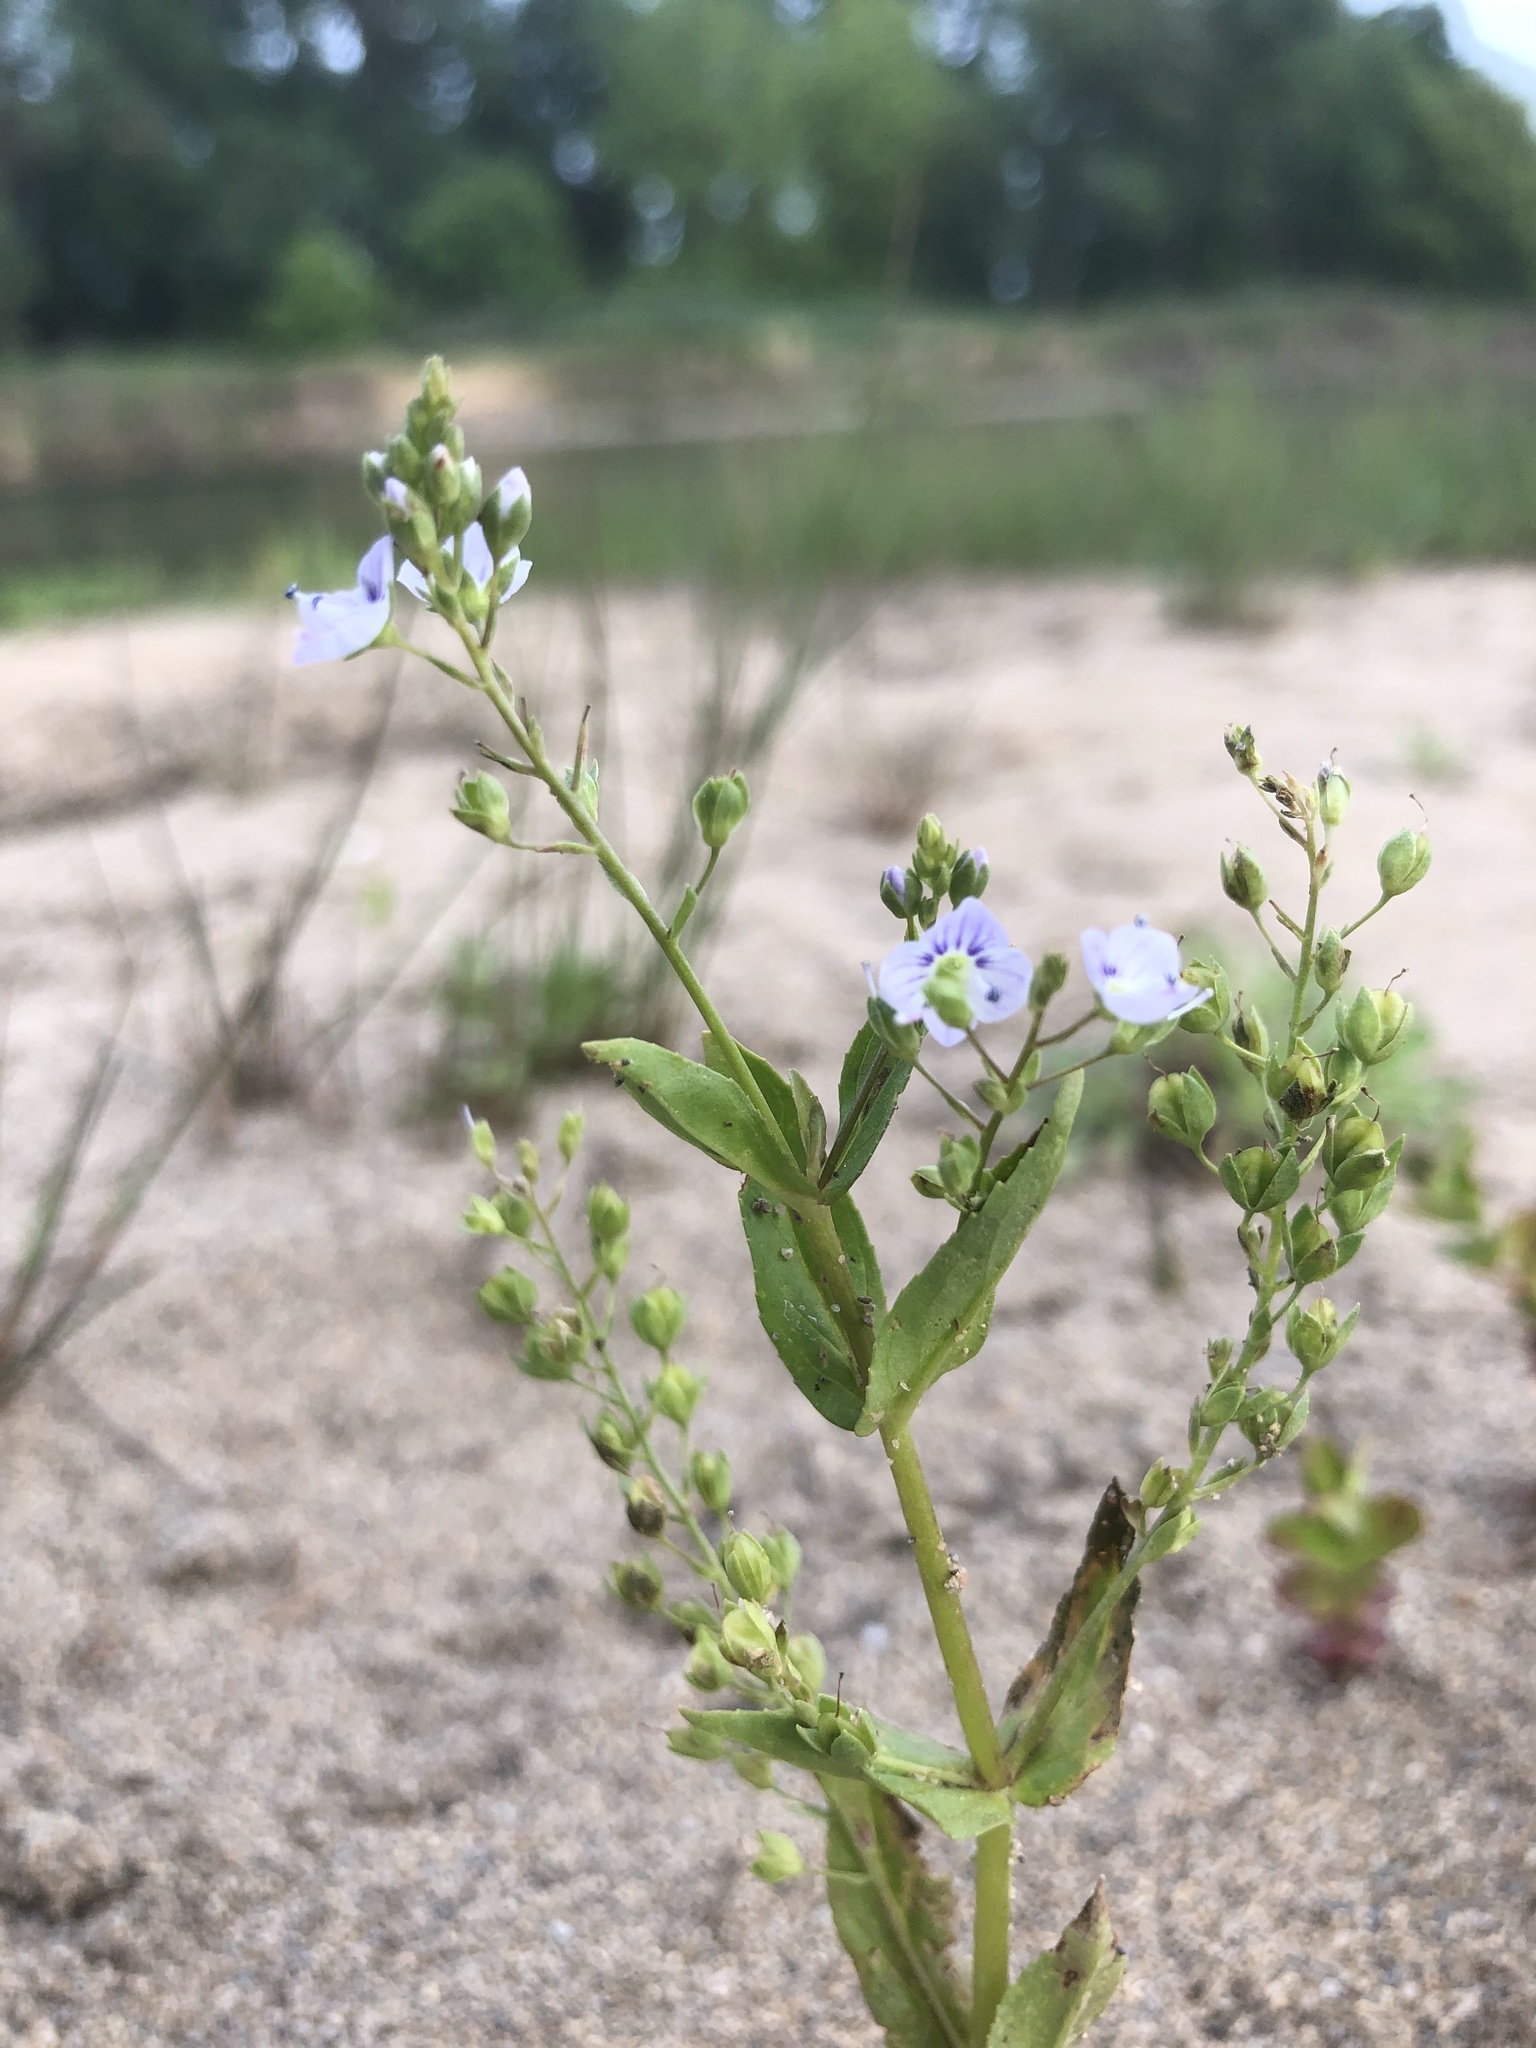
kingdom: Plantae
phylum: Tracheophyta
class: Magnoliopsida
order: Lamiales
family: Plantaginaceae
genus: Veronica
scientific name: Veronica anagallis-aquatica
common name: Water speedwell
